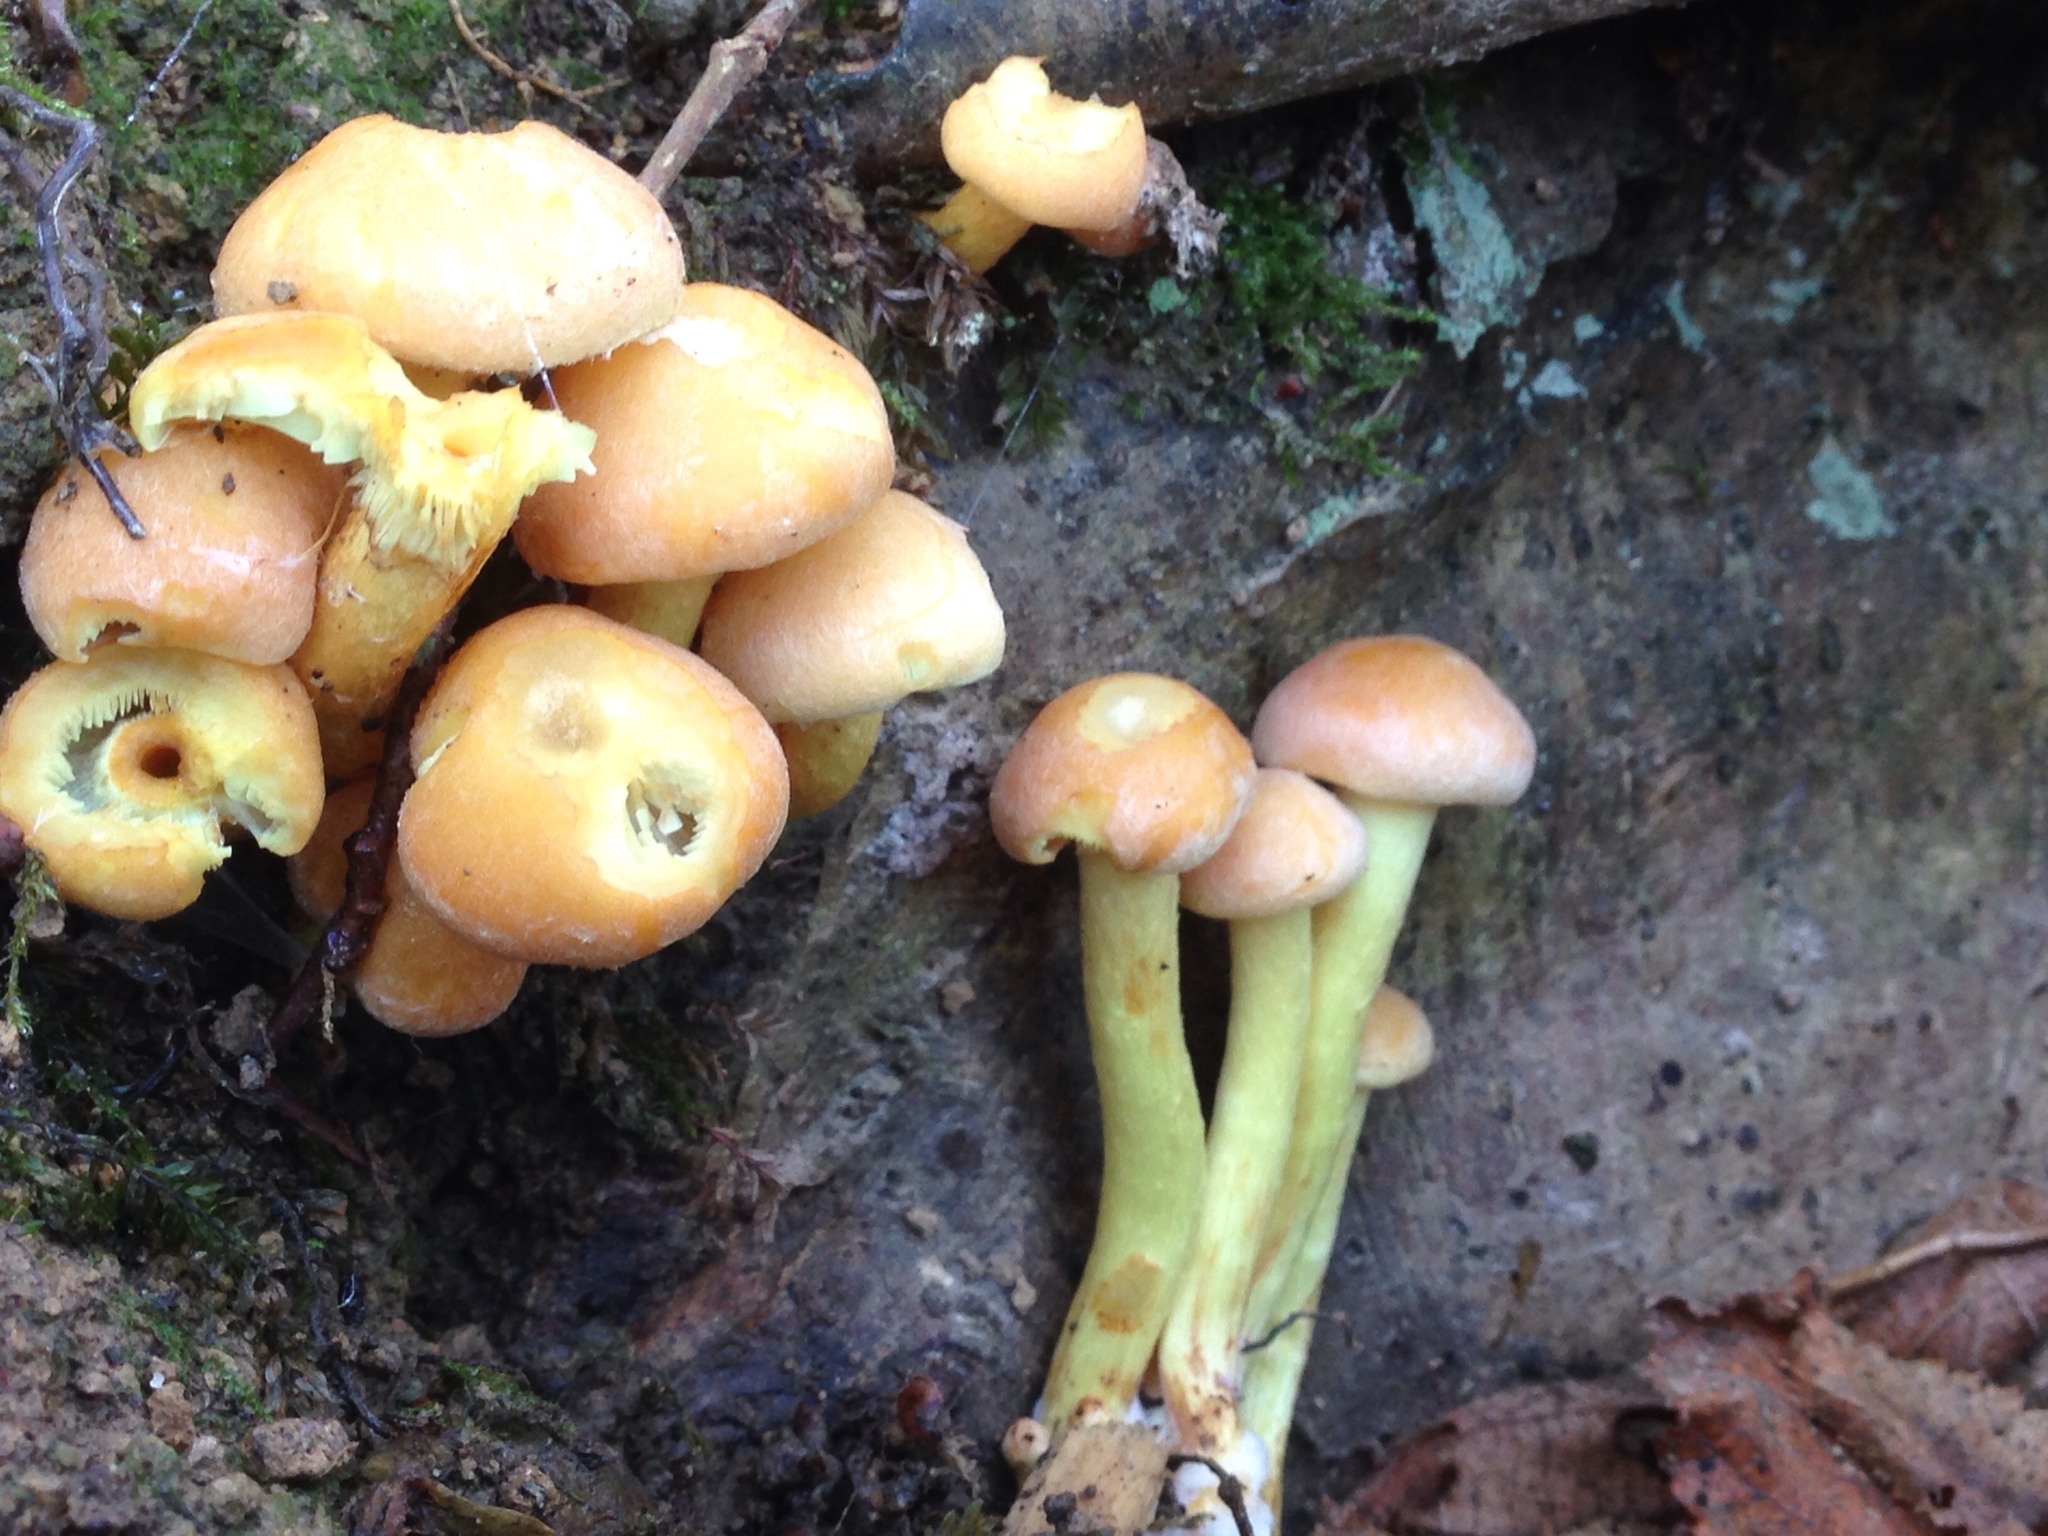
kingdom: Fungi
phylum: Basidiomycota
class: Agaricomycetes
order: Agaricales
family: Strophariaceae
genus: Hypholoma
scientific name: Hypholoma fasciculare
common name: Sulphur tuft
